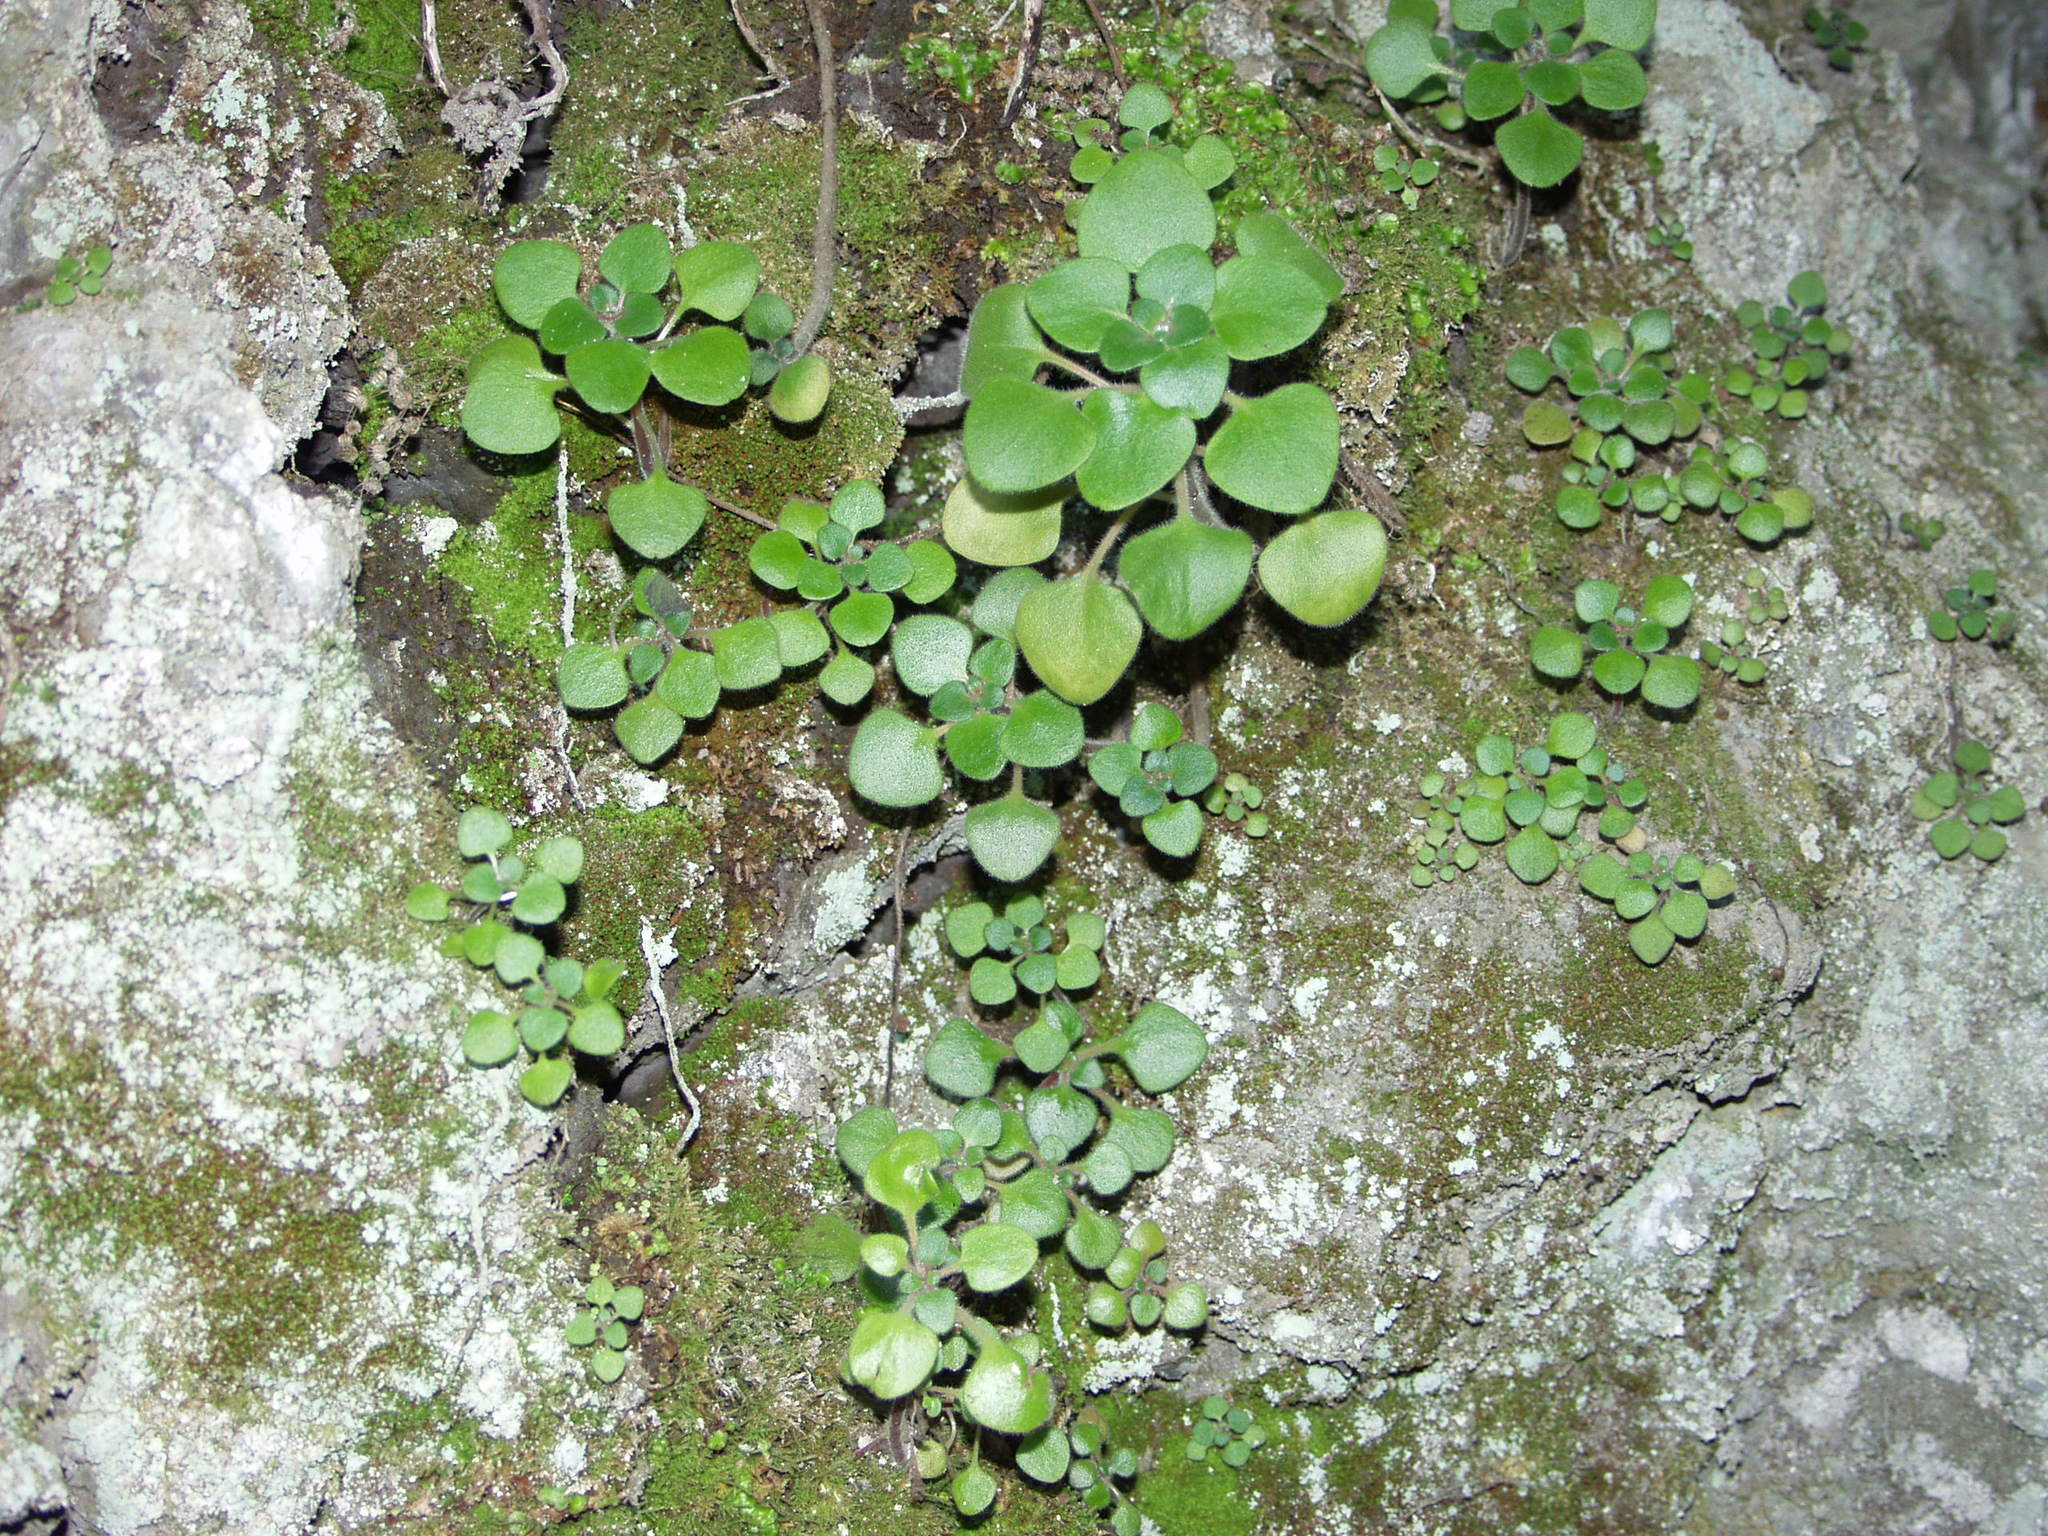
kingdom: Plantae
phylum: Tracheophyta
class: Magnoliopsida
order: Saxifragales
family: Crassulaceae
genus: Aichryson
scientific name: Aichryson laxum
